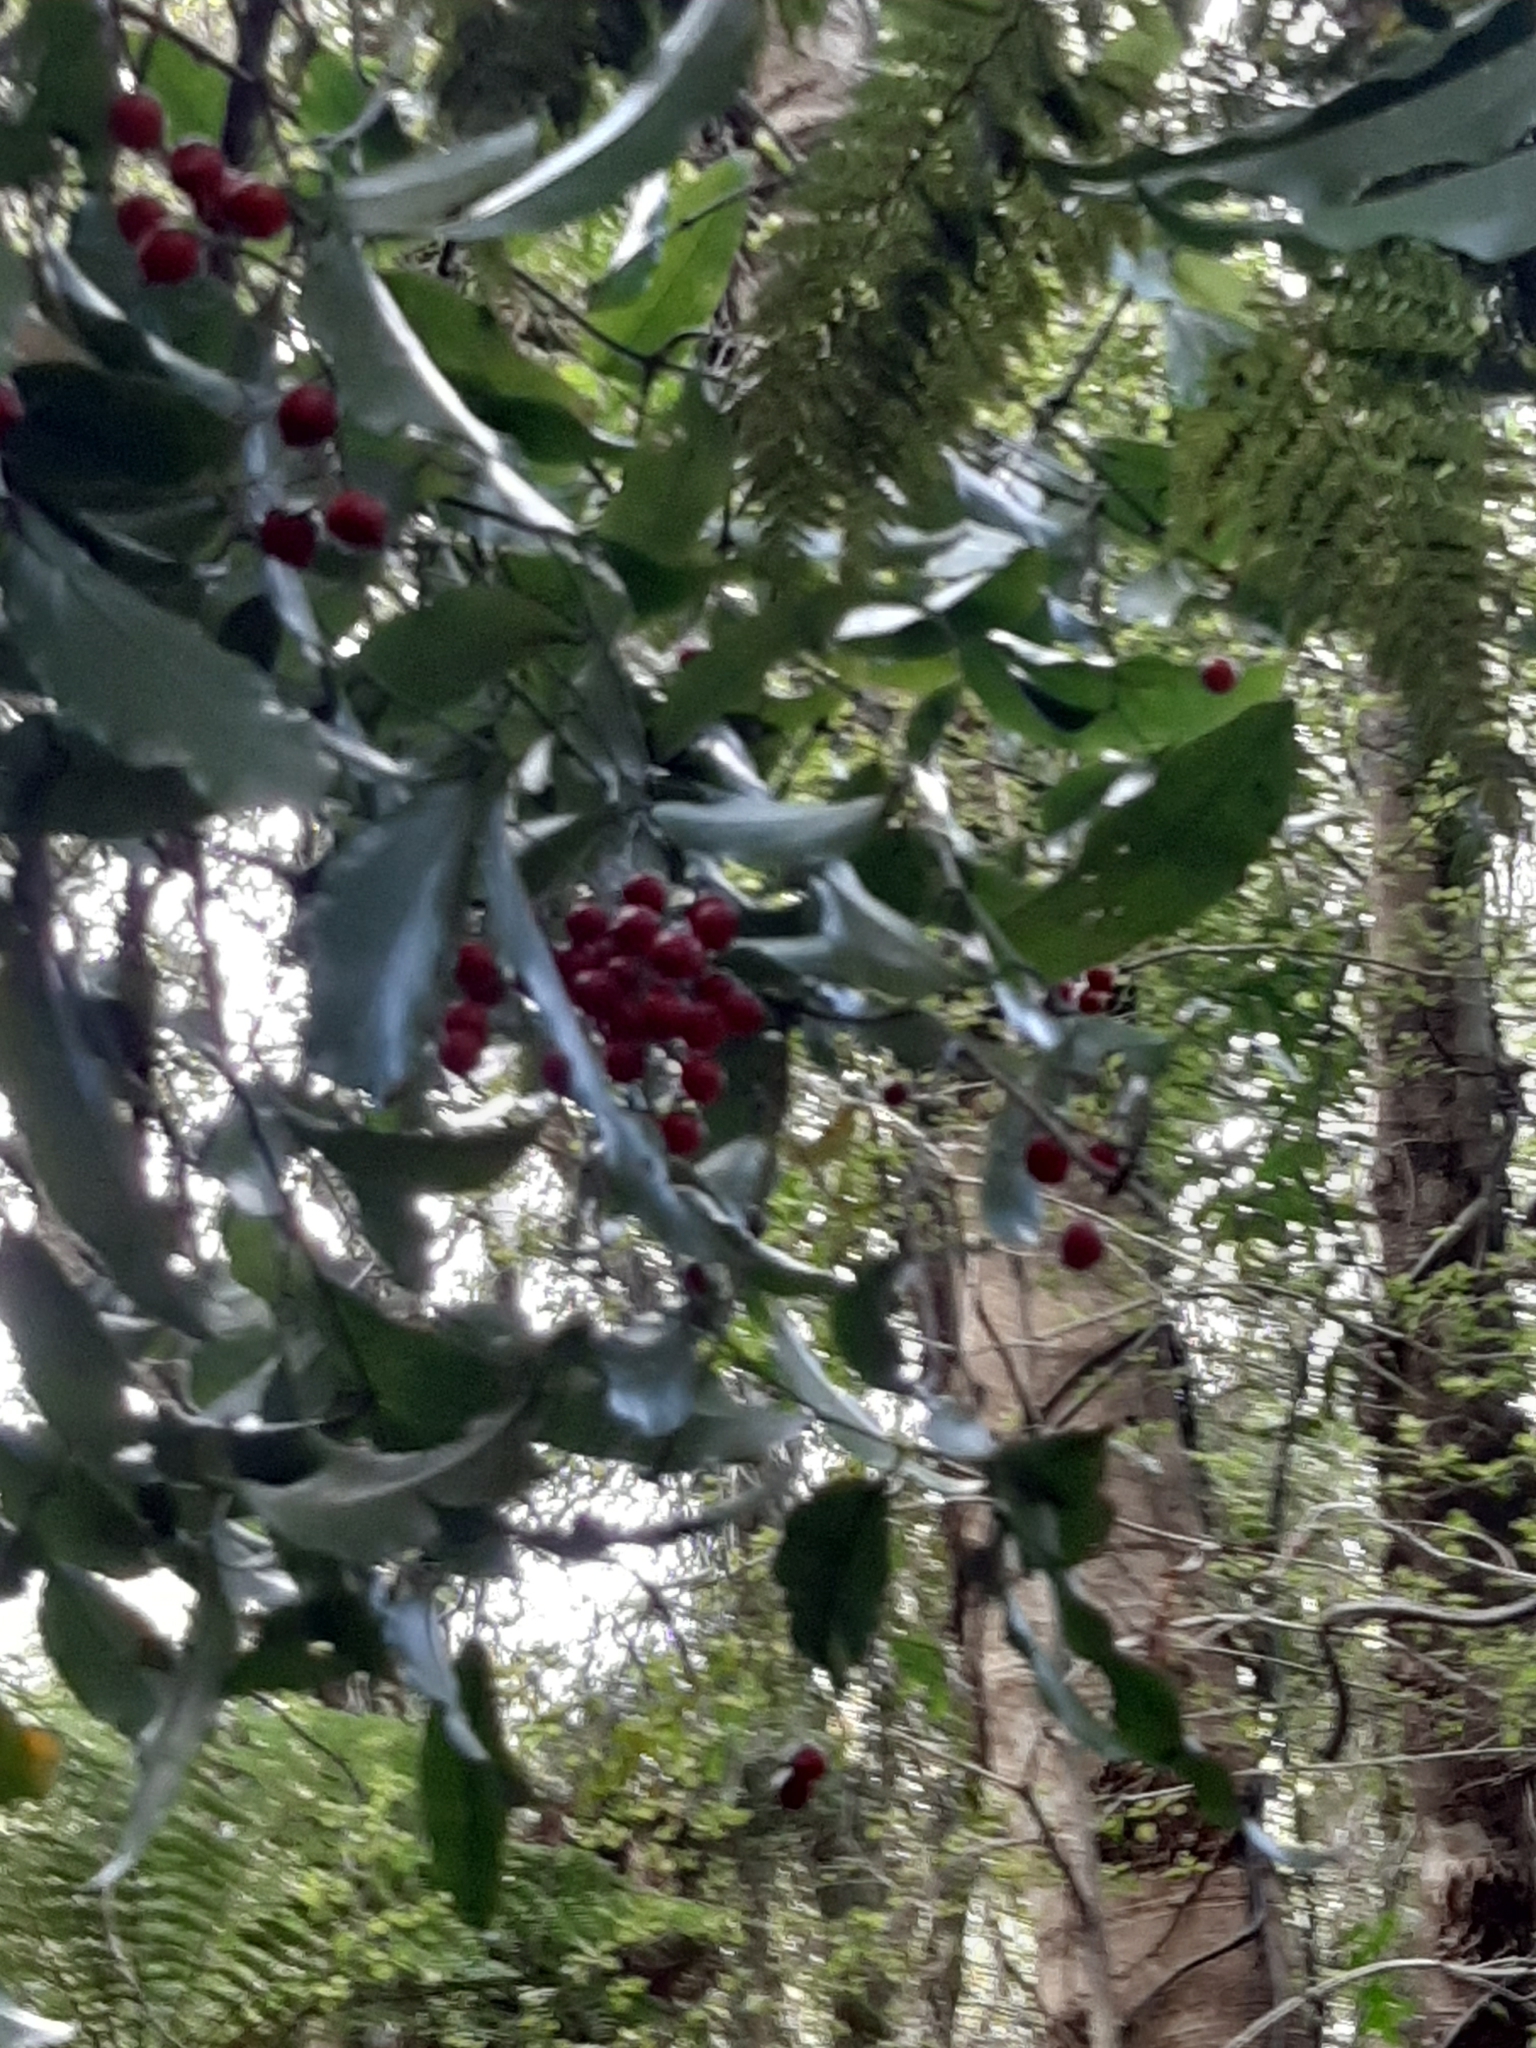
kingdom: Plantae
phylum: Tracheophyta
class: Liliopsida
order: Liliales
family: Ripogonaceae
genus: Ripogonum
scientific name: Ripogonum scandens
